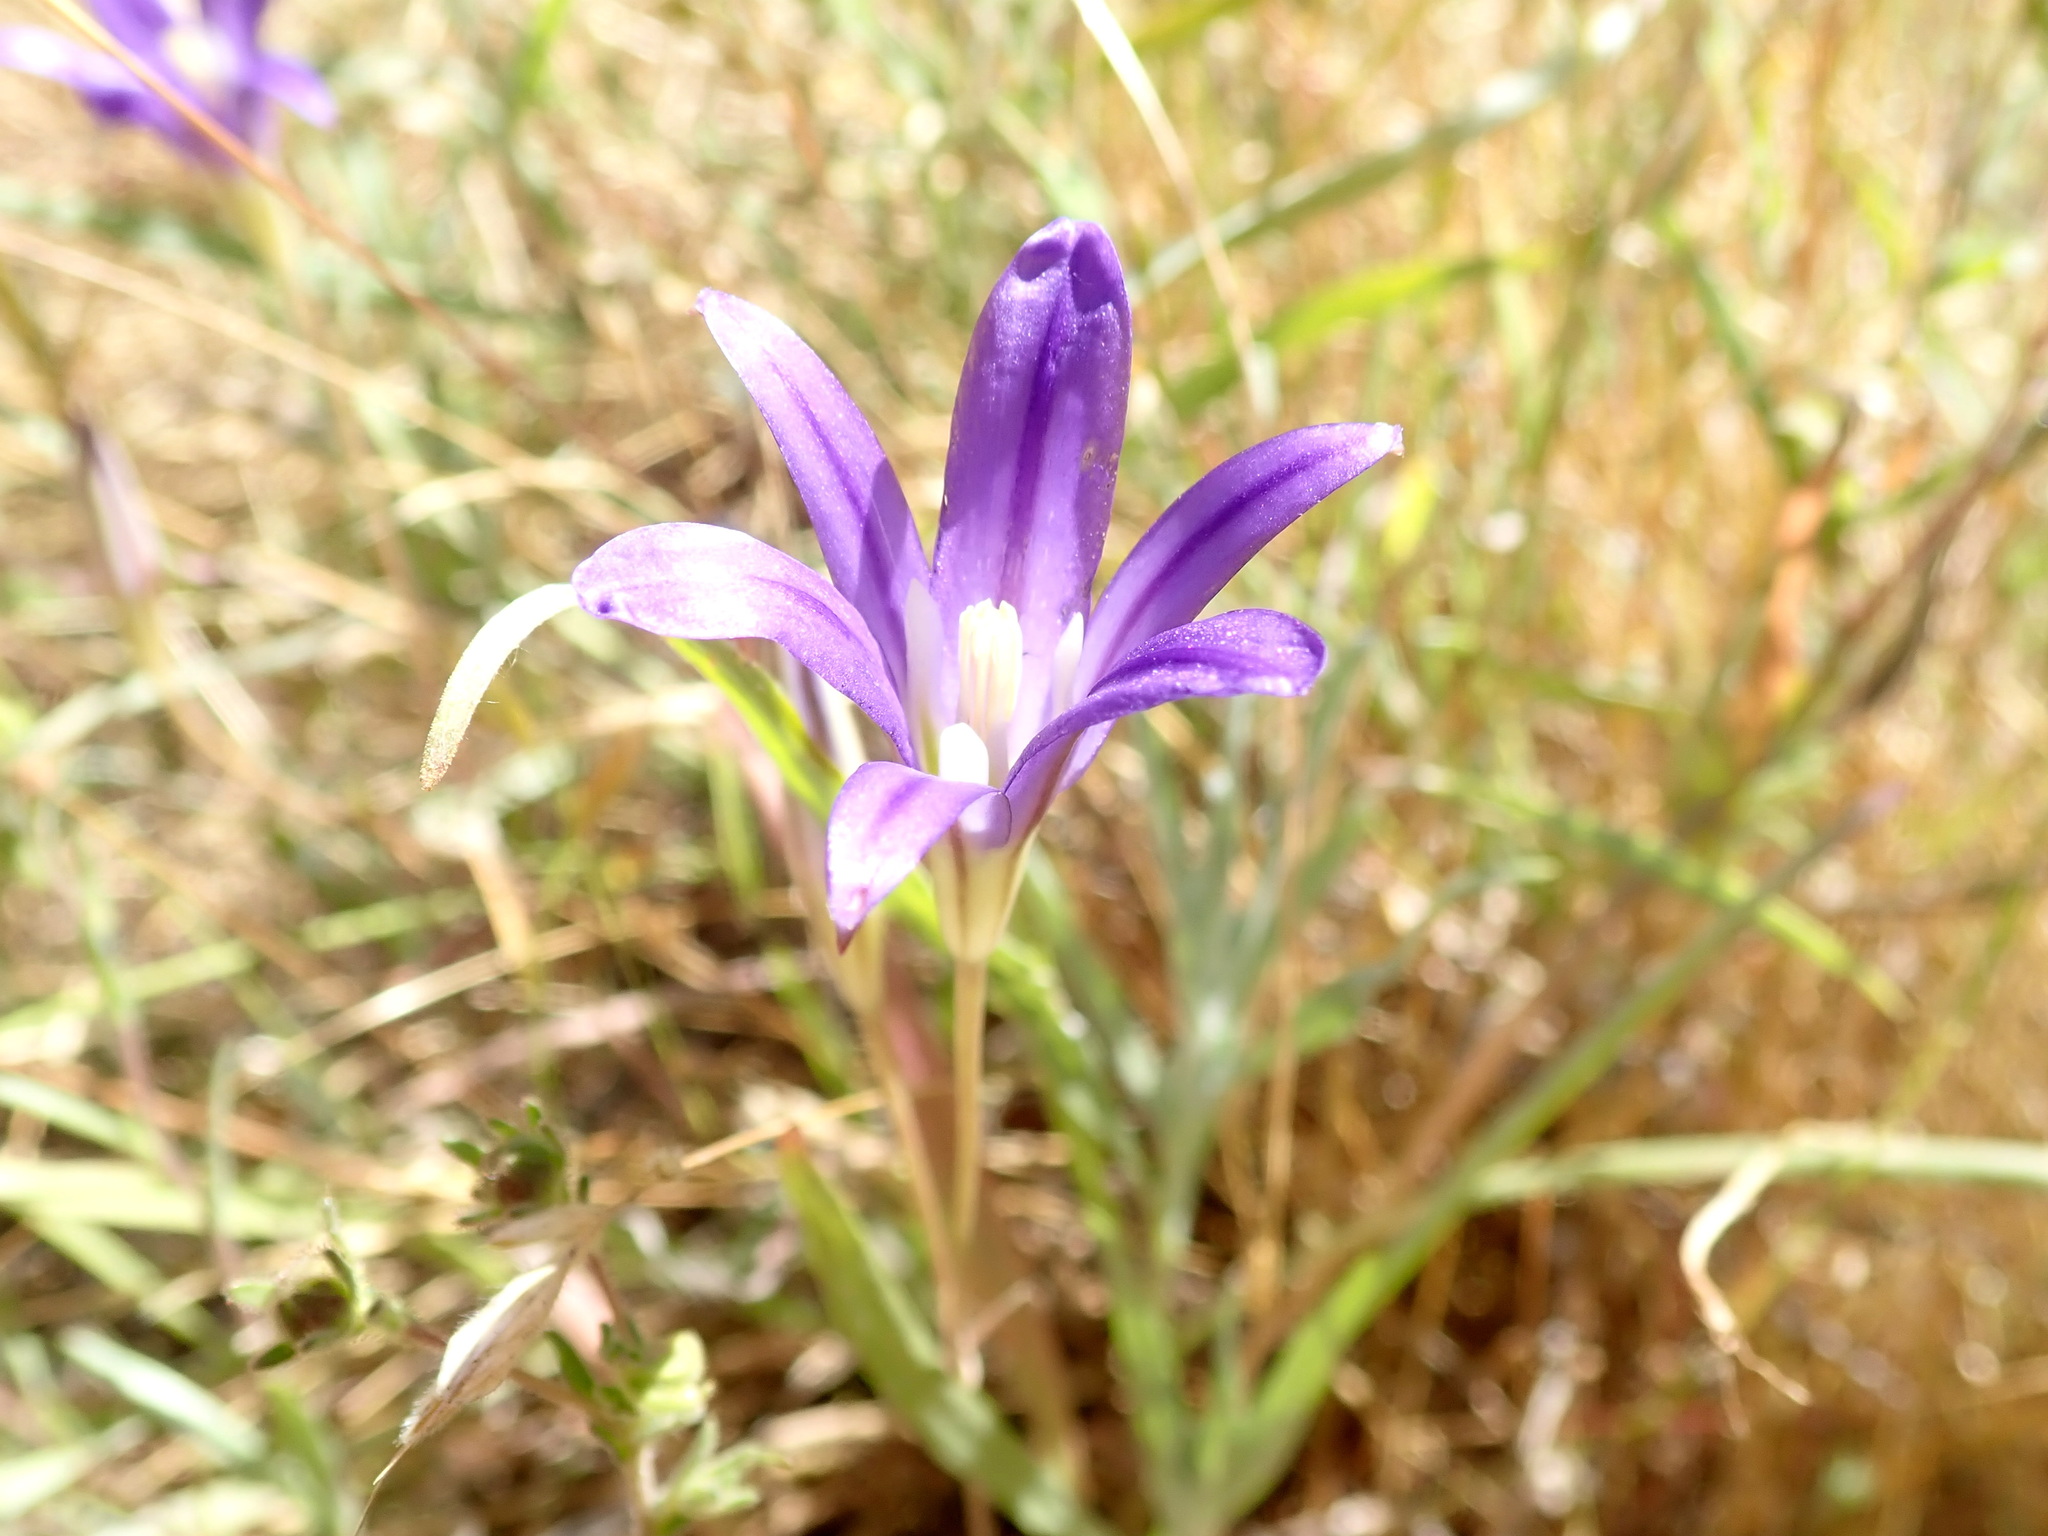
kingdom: Plantae
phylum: Tracheophyta
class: Liliopsida
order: Asparagales
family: Asparagaceae
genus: Brodiaea
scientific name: Brodiaea elegans
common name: Elegant cluster-lily
